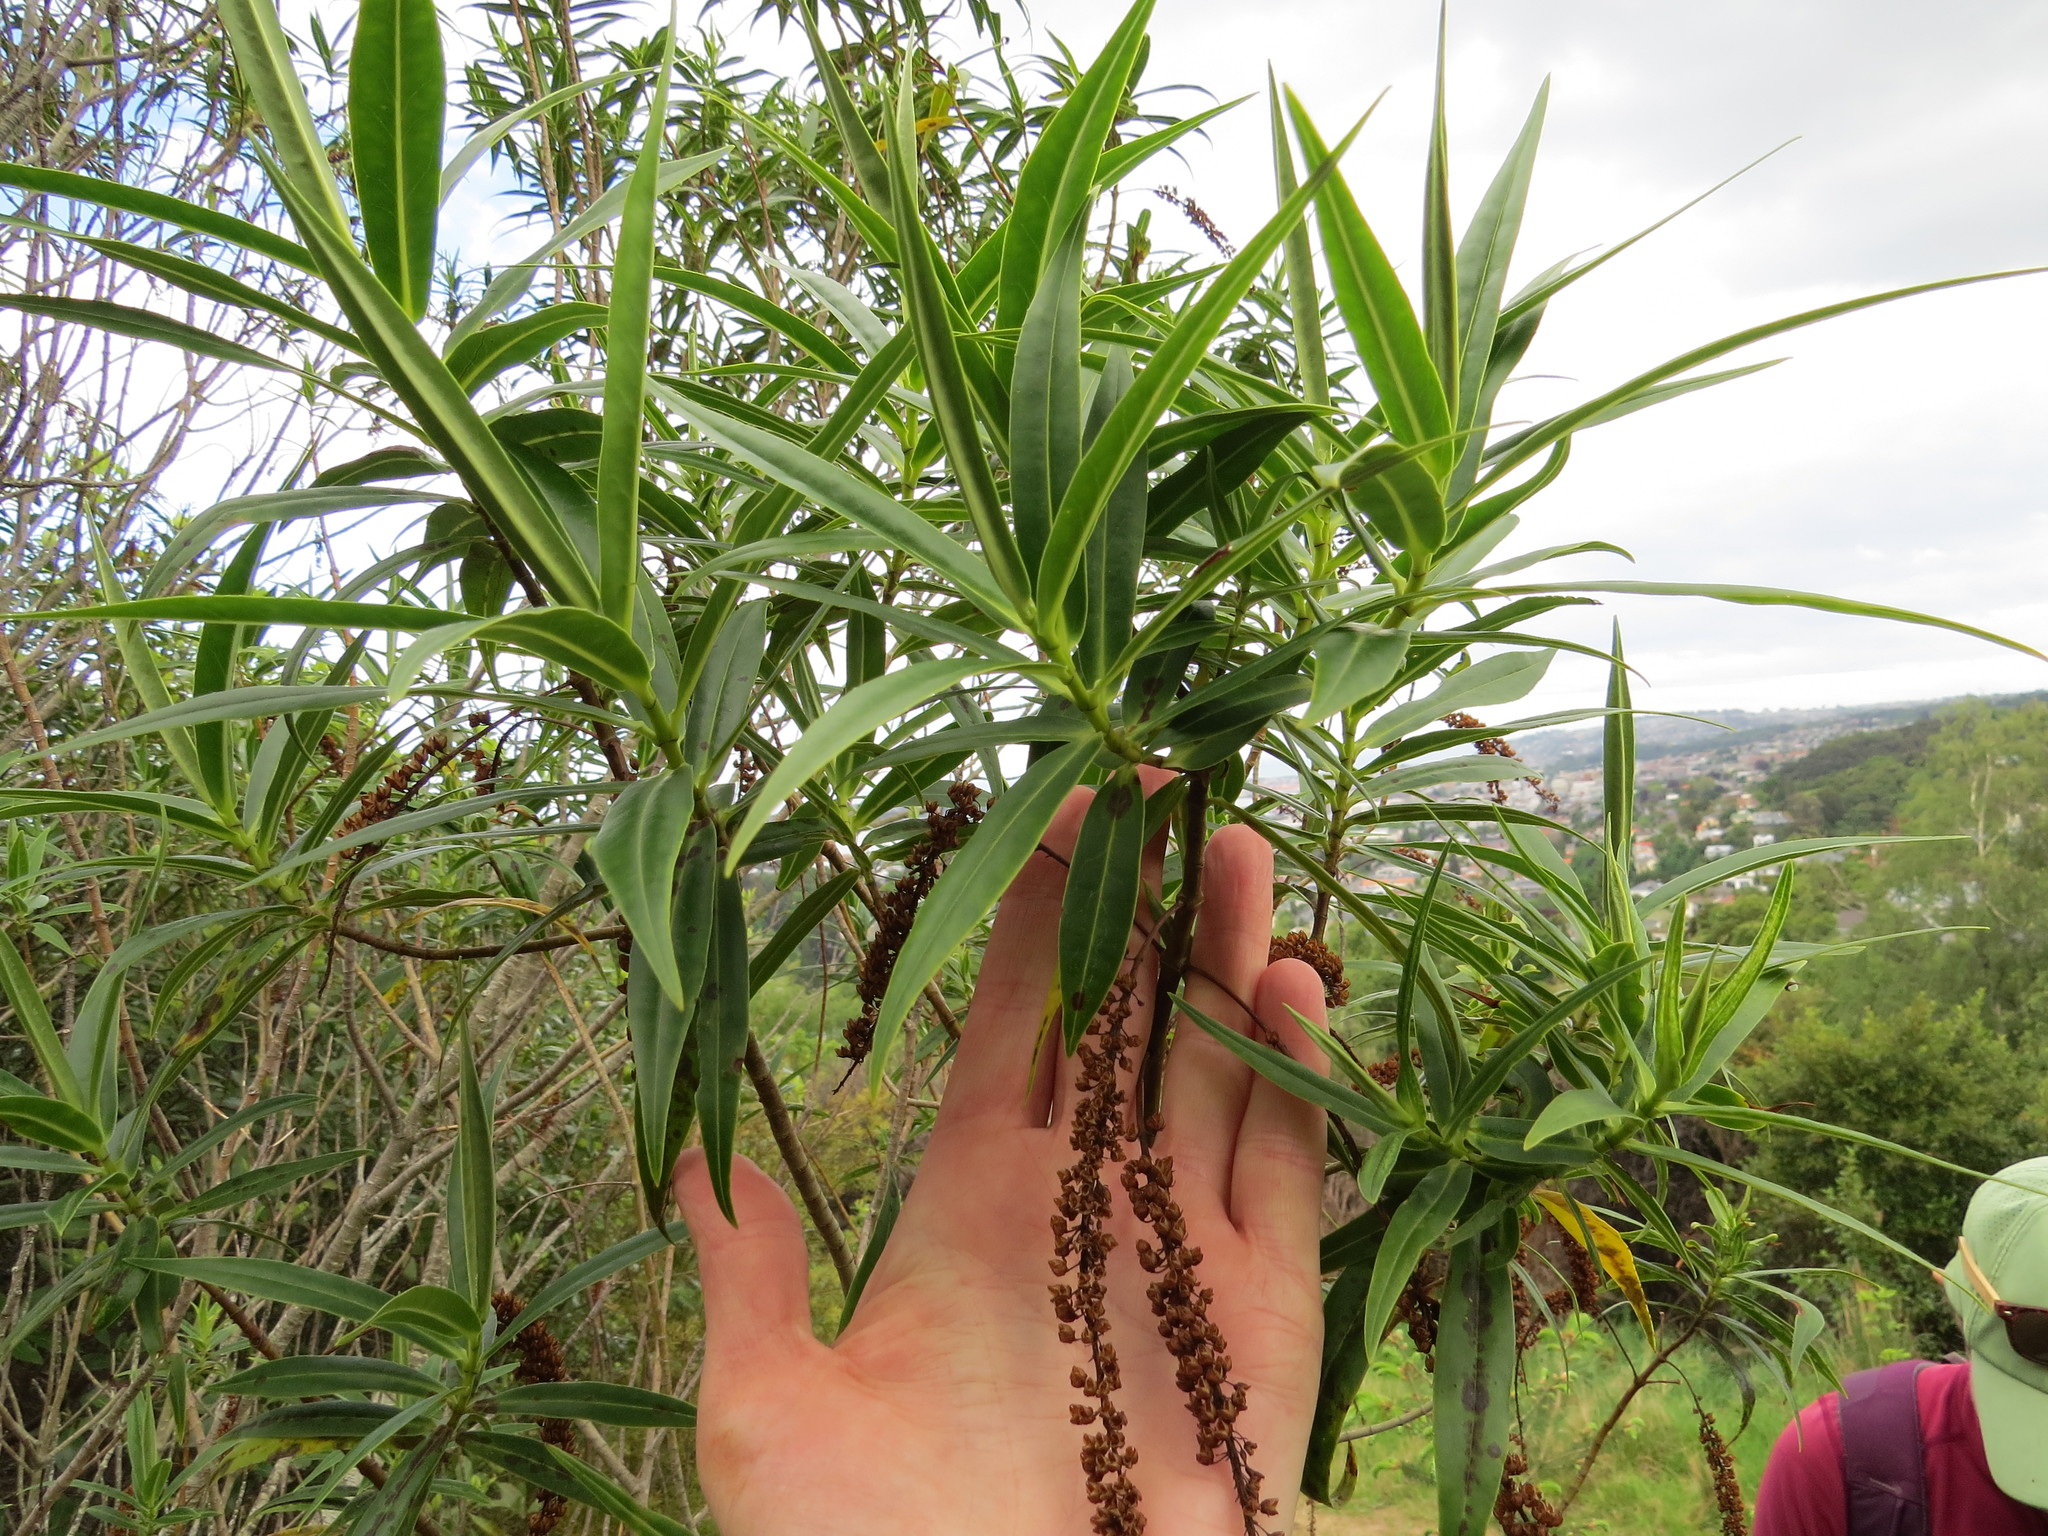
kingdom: Plantae
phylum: Tracheophyta
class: Magnoliopsida
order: Lamiales
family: Plantaginaceae
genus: Veronica
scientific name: Veronica salicifolia
